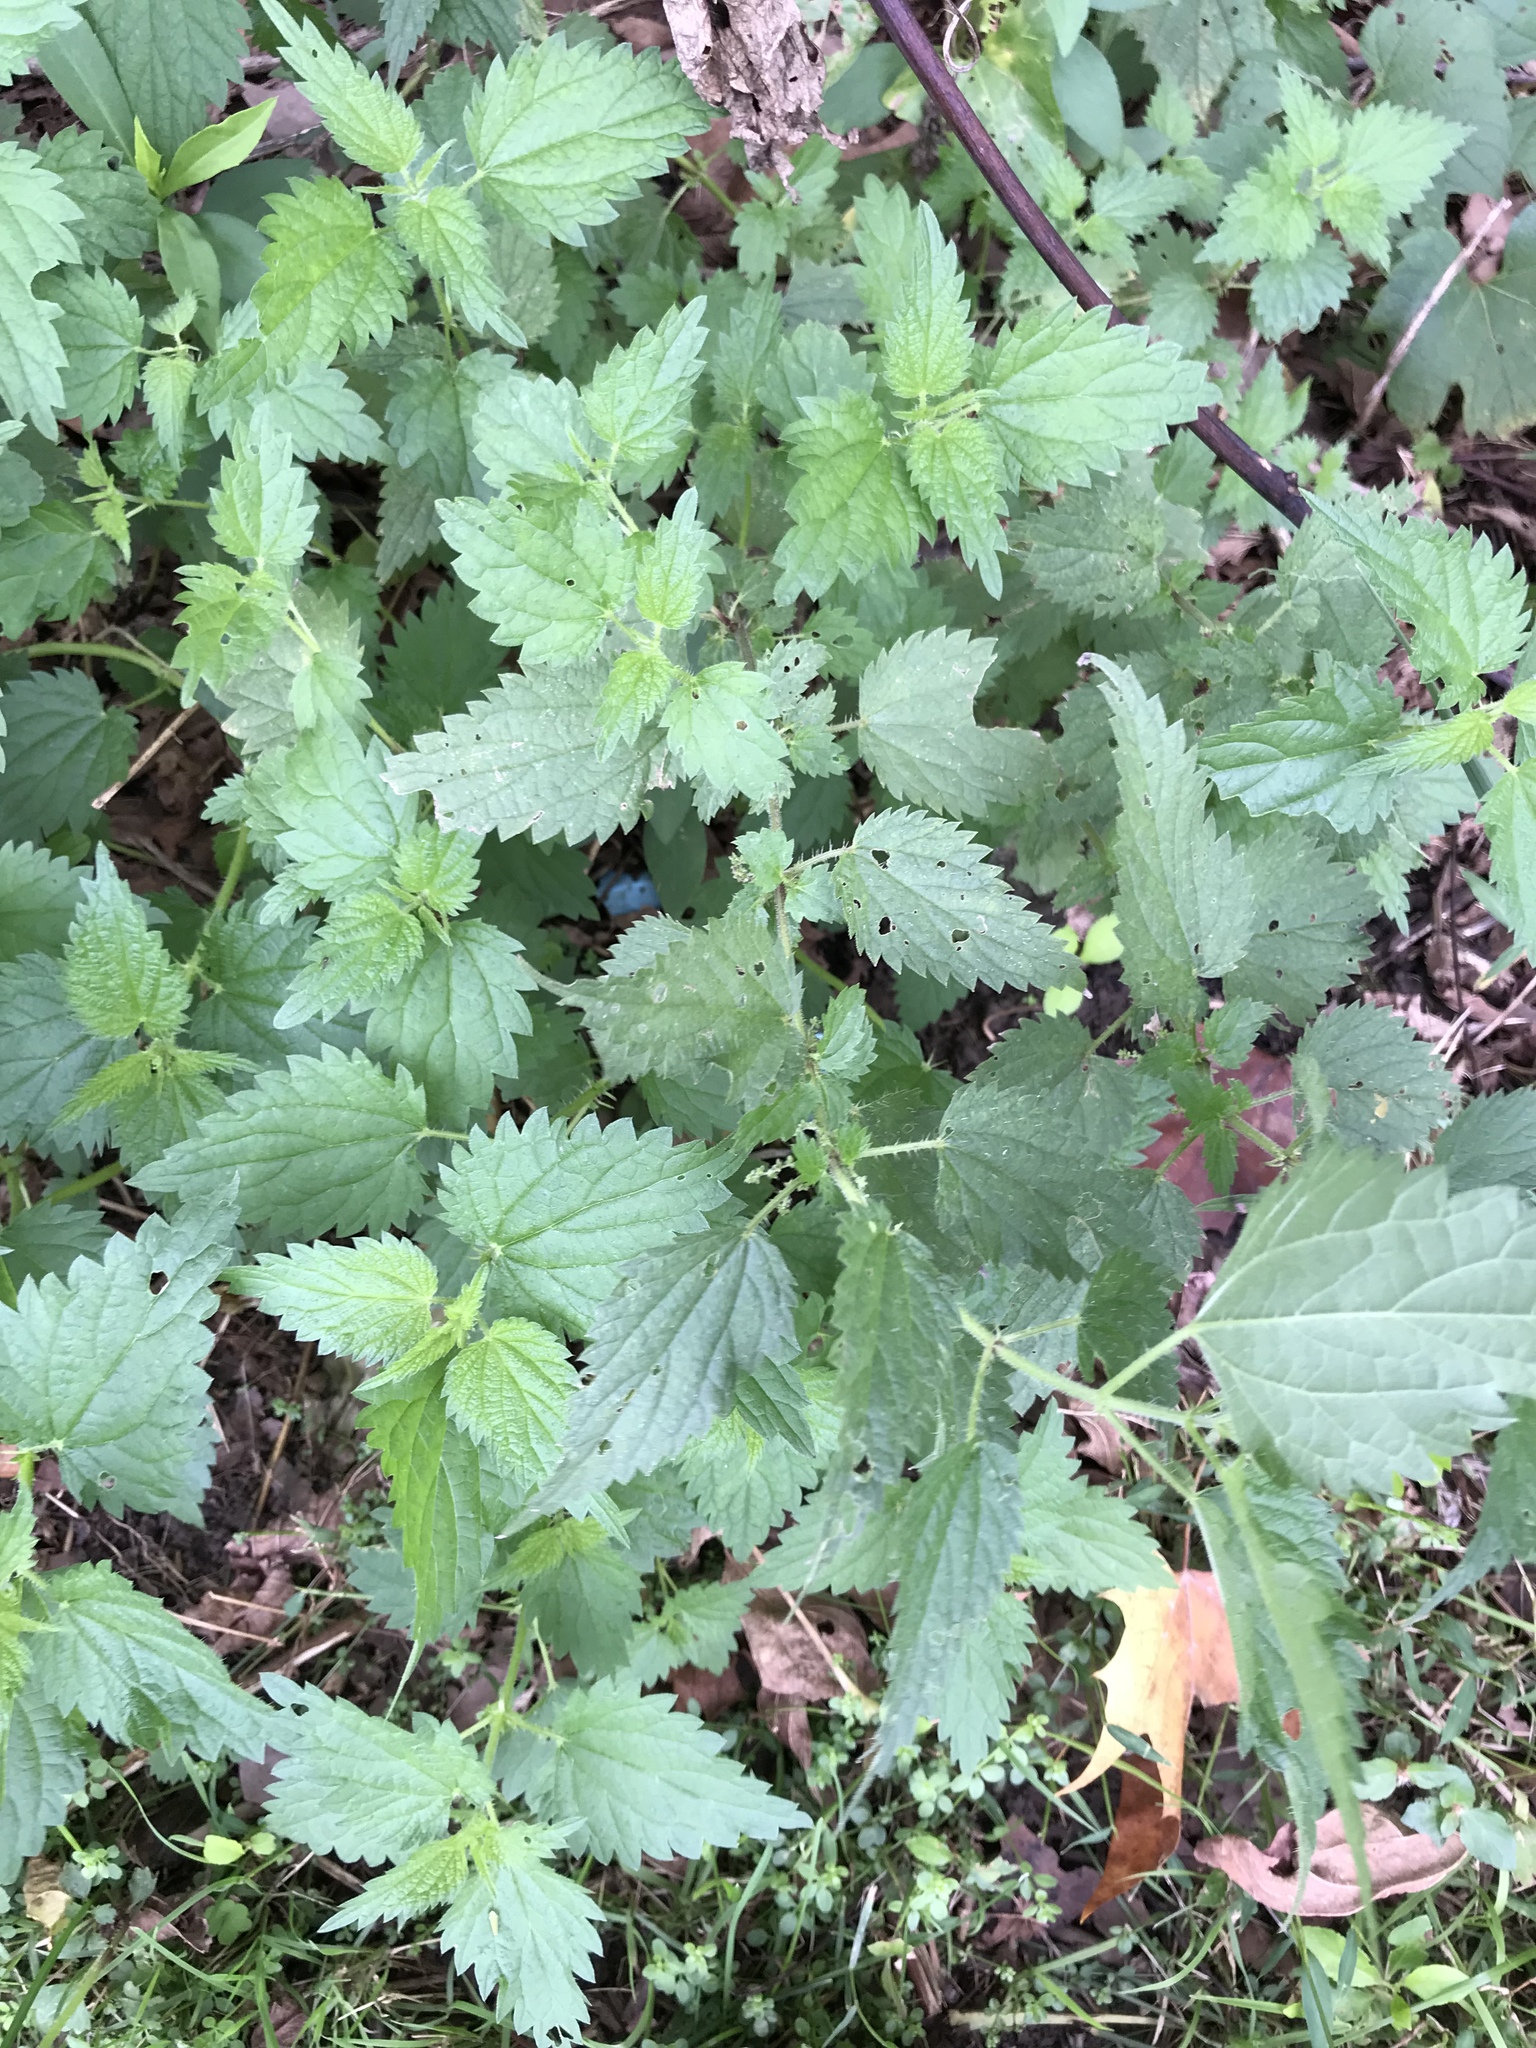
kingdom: Plantae
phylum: Tracheophyta
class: Magnoliopsida
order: Rosales
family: Urticaceae
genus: Urtica
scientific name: Urtica dioica
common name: Common nettle
